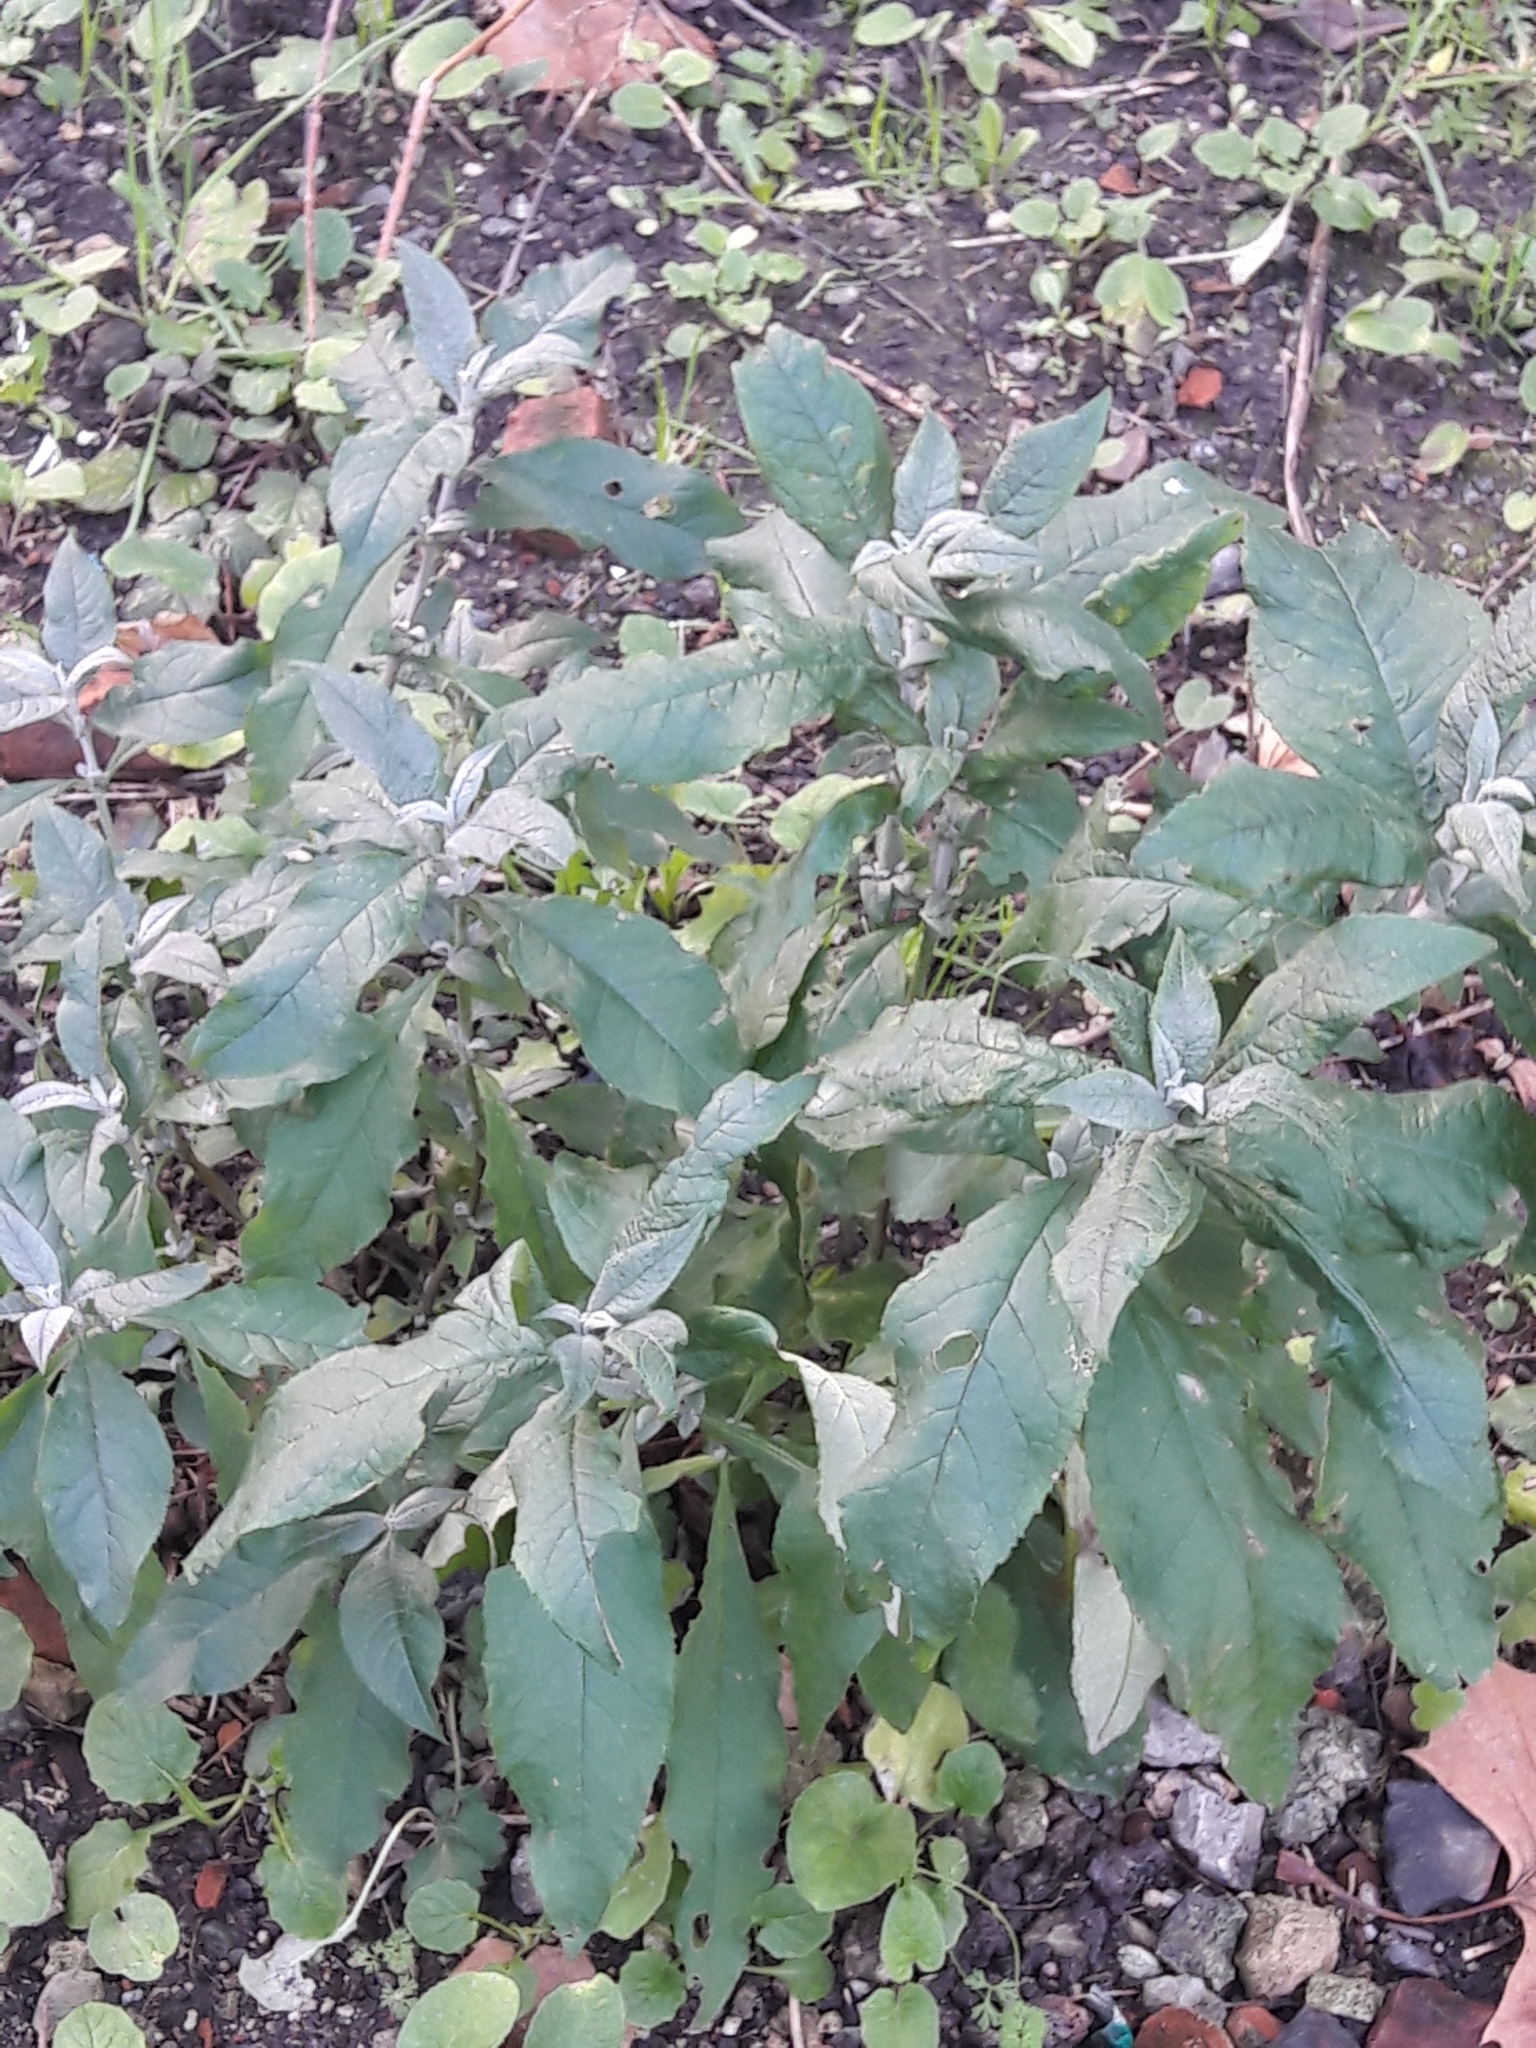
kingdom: Plantae
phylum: Tracheophyta
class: Magnoliopsida
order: Lamiales
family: Scrophulariaceae
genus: Buddleja
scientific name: Buddleja davidii
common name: Butterfly-bush
